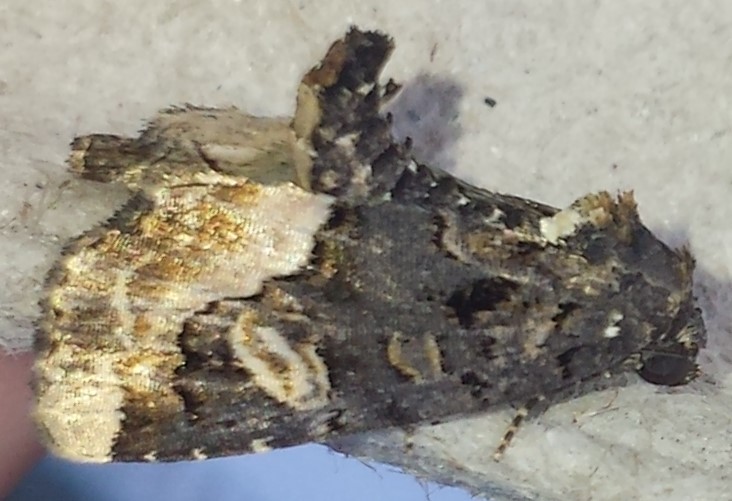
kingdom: Animalia
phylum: Arthropoda
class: Insecta
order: Lepidoptera
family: Noctuidae
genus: Homophoberia
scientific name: Homophoberia apicosa
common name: Black wedge-spot
